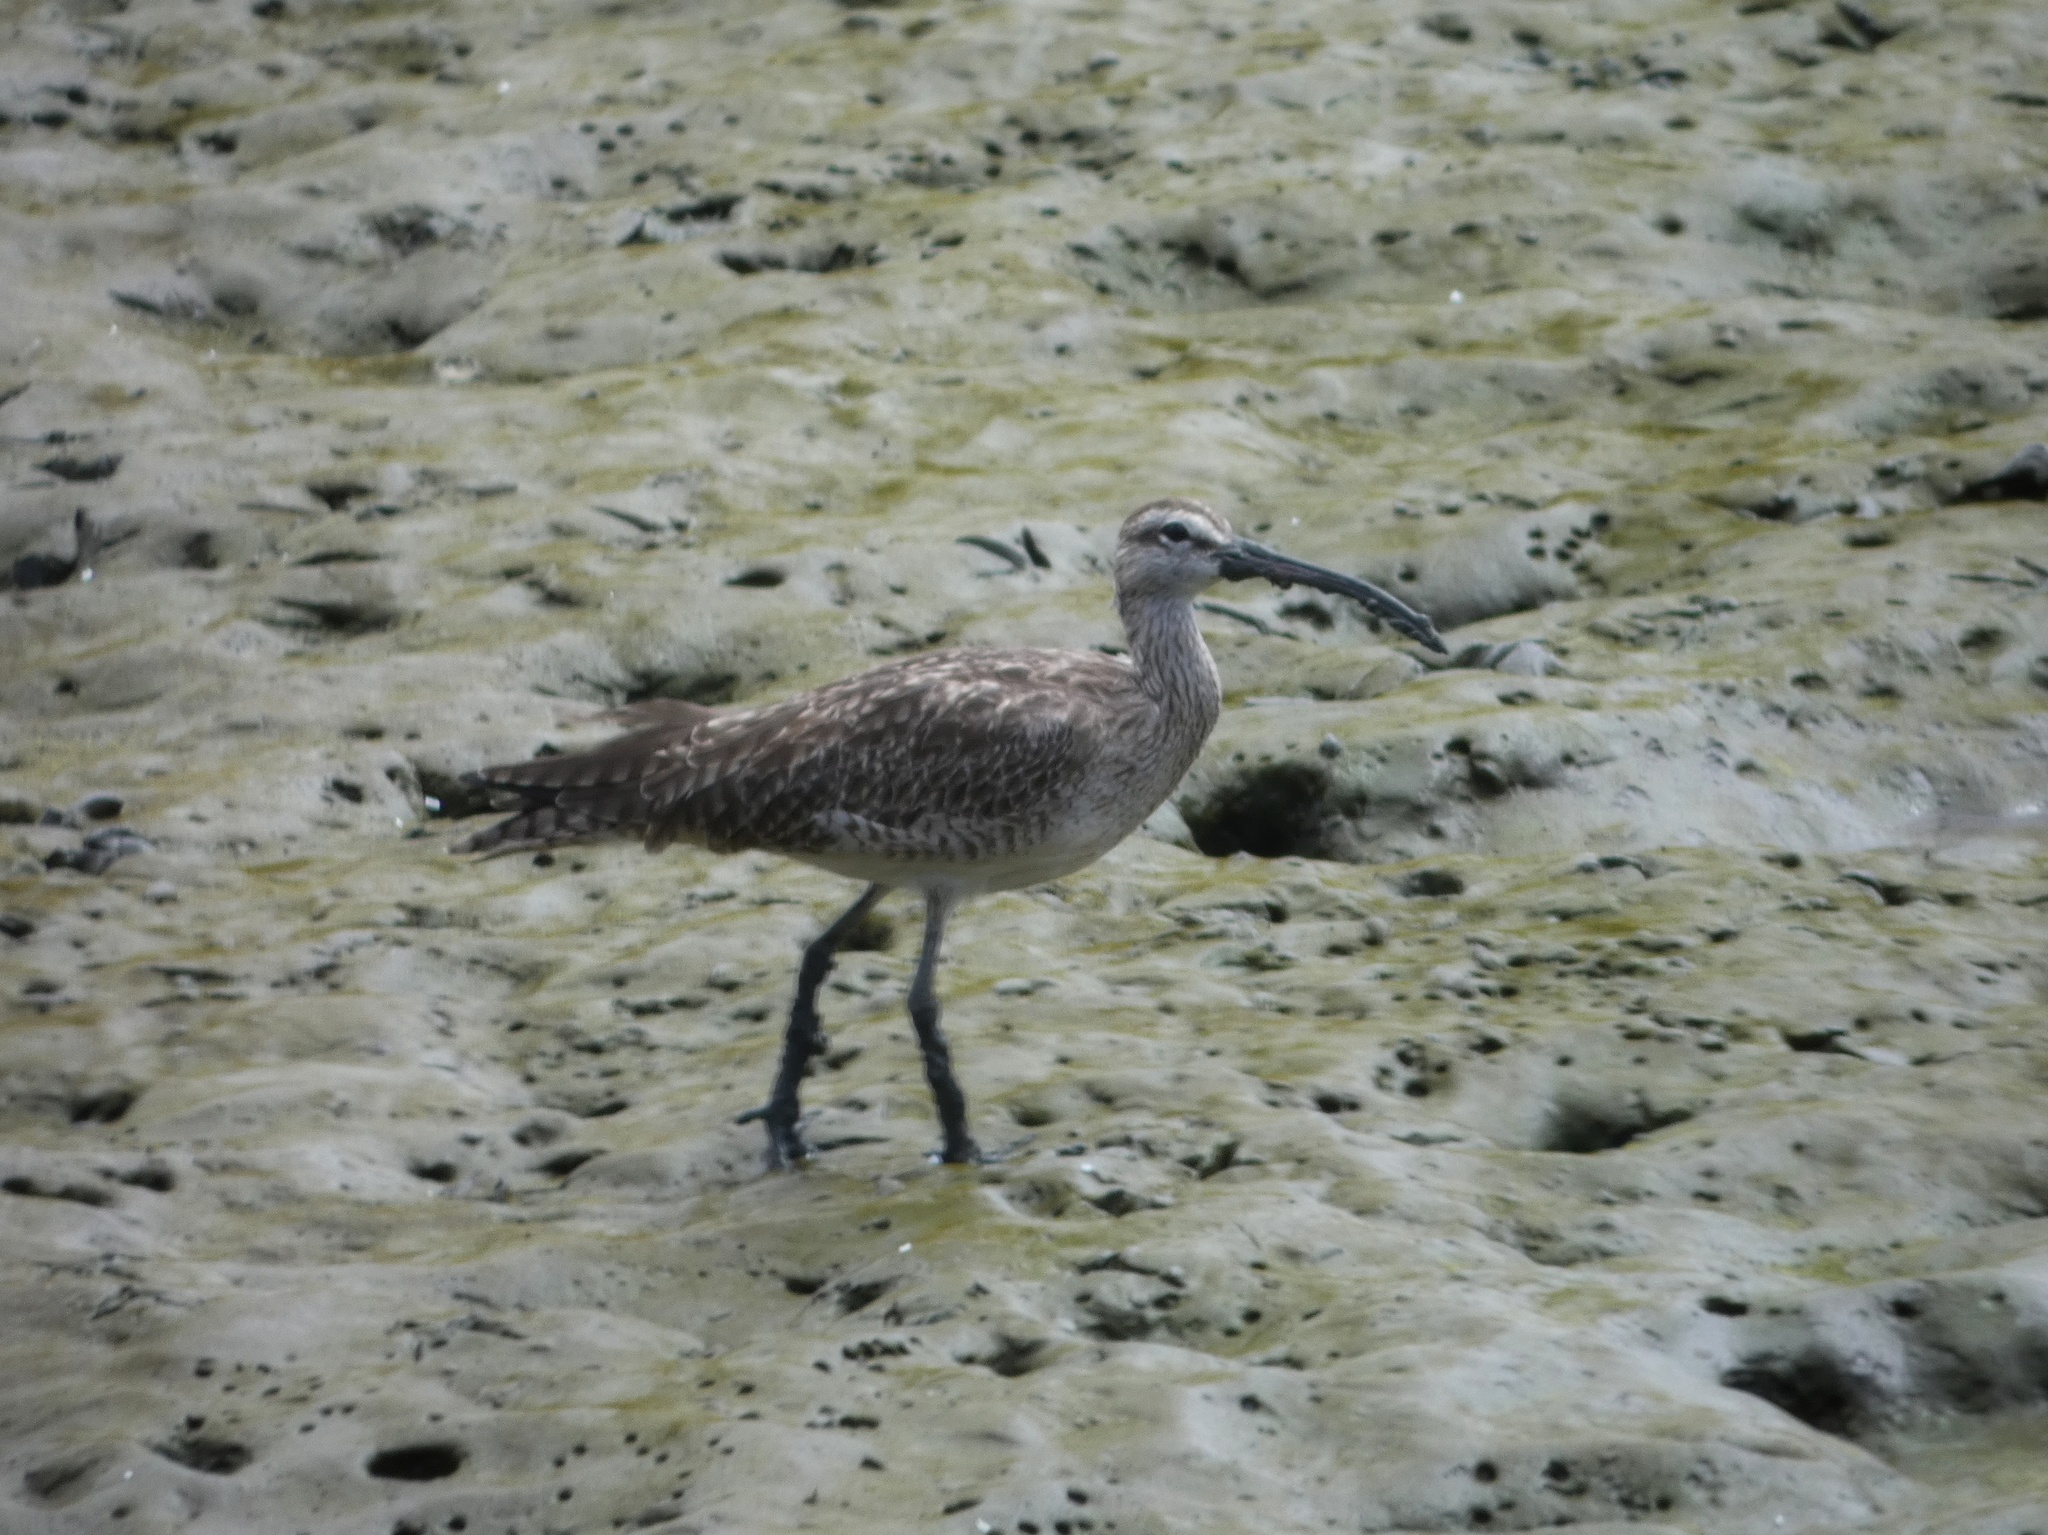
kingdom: Animalia
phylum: Chordata
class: Aves
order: Charadriiformes
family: Scolopacidae
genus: Numenius
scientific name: Numenius phaeopus
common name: Whimbrel
